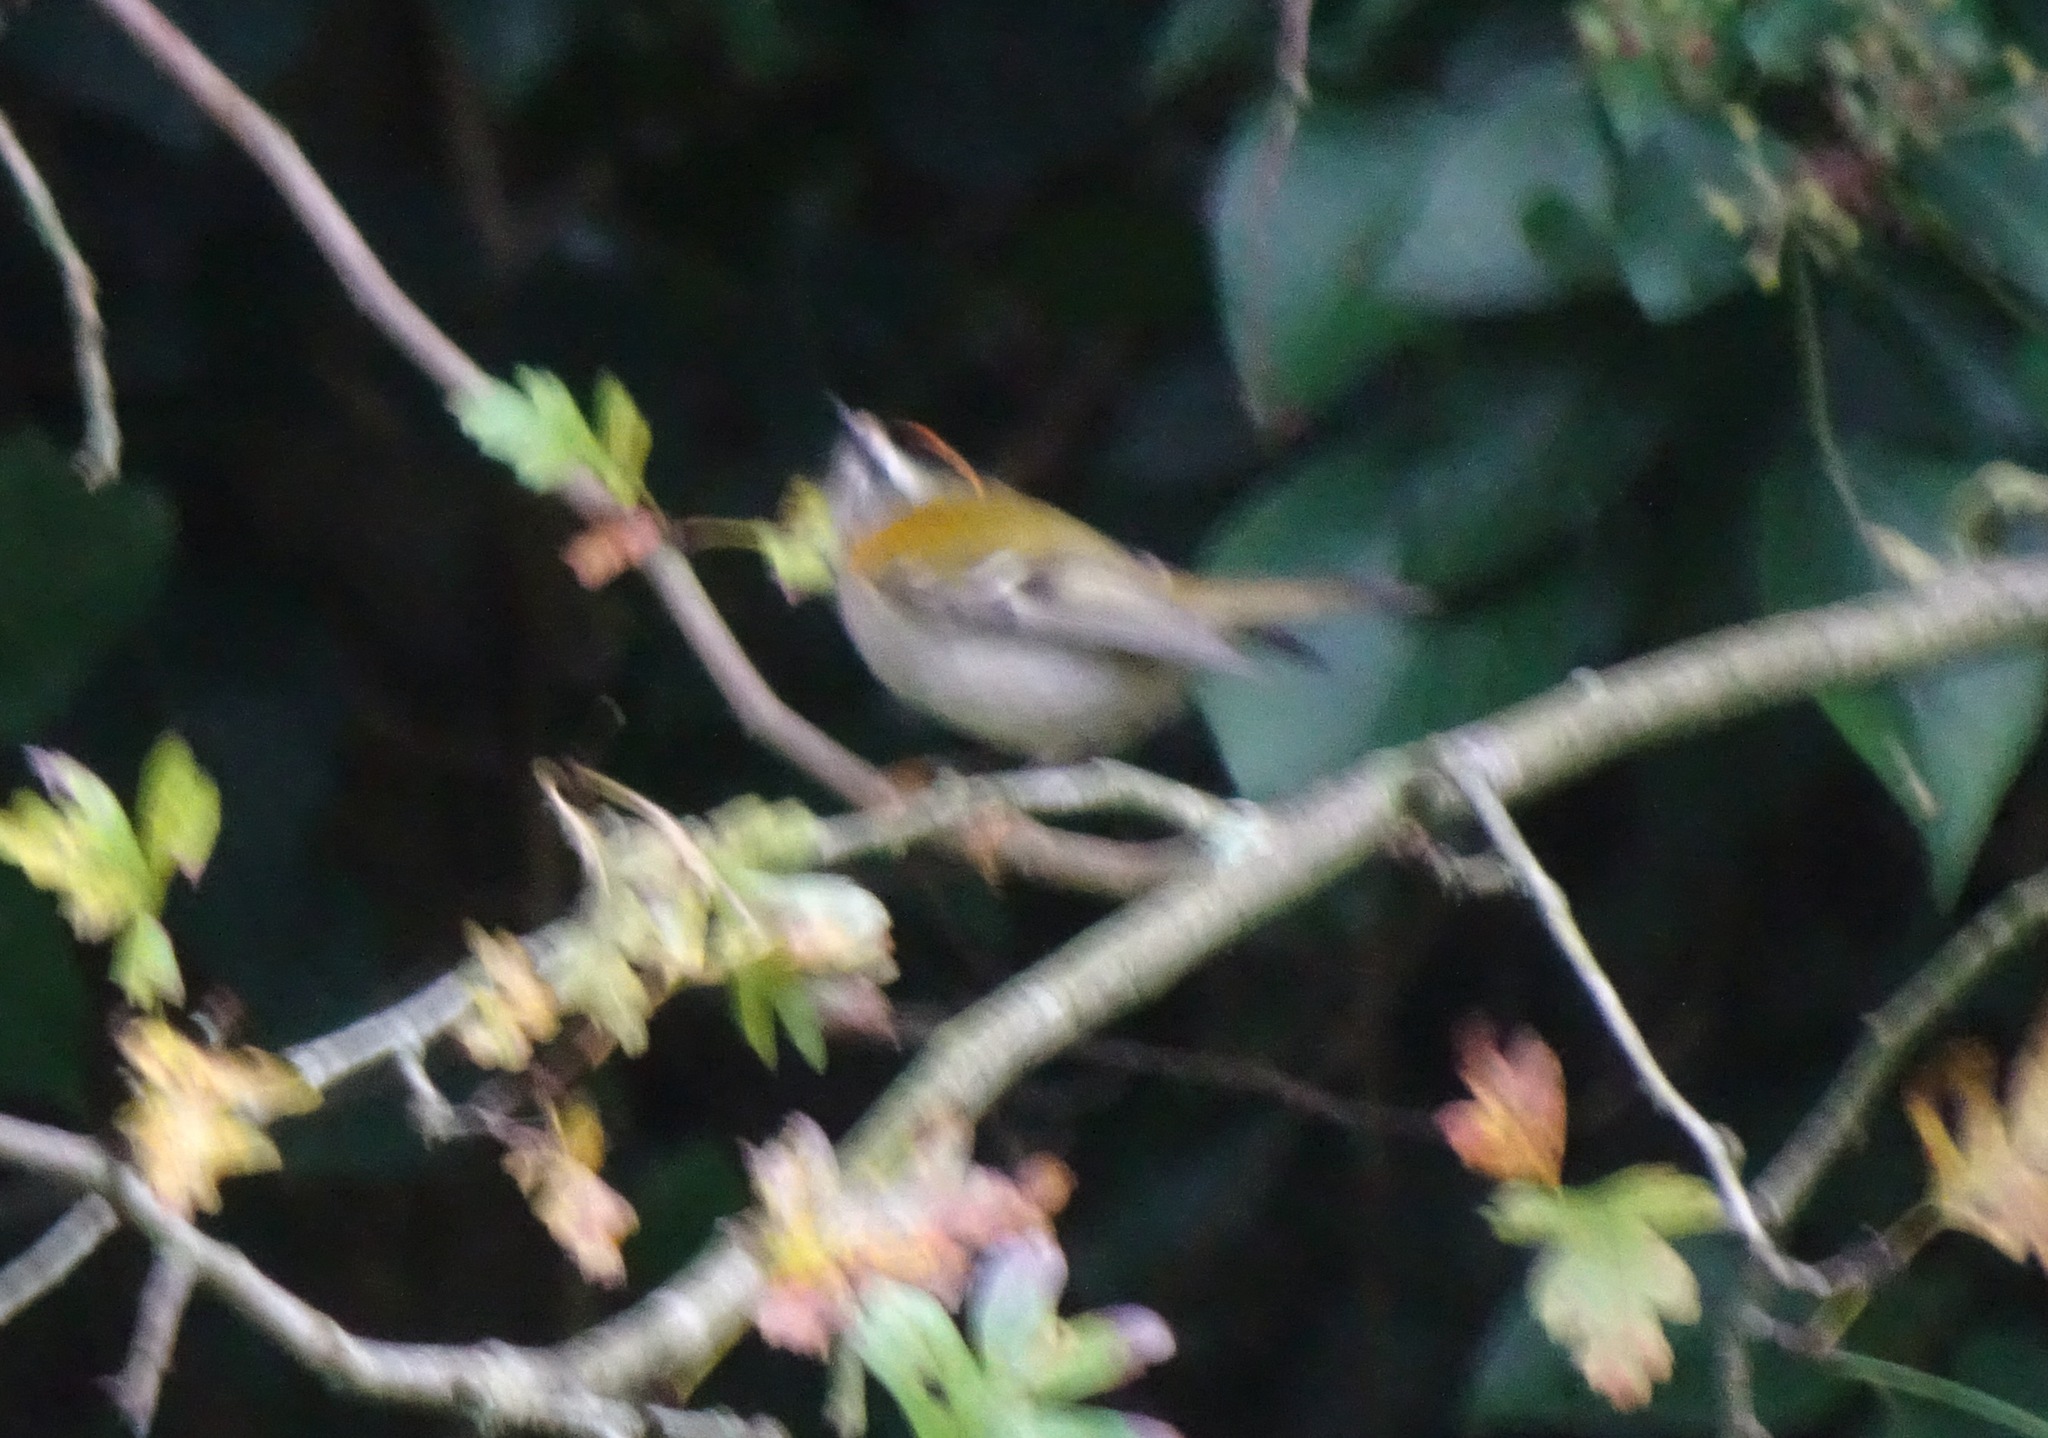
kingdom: Animalia
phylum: Chordata
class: Aves
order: Passeriformes
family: Regulidae
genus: Regulus
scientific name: Regulus ignicapilla
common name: Firecrest
